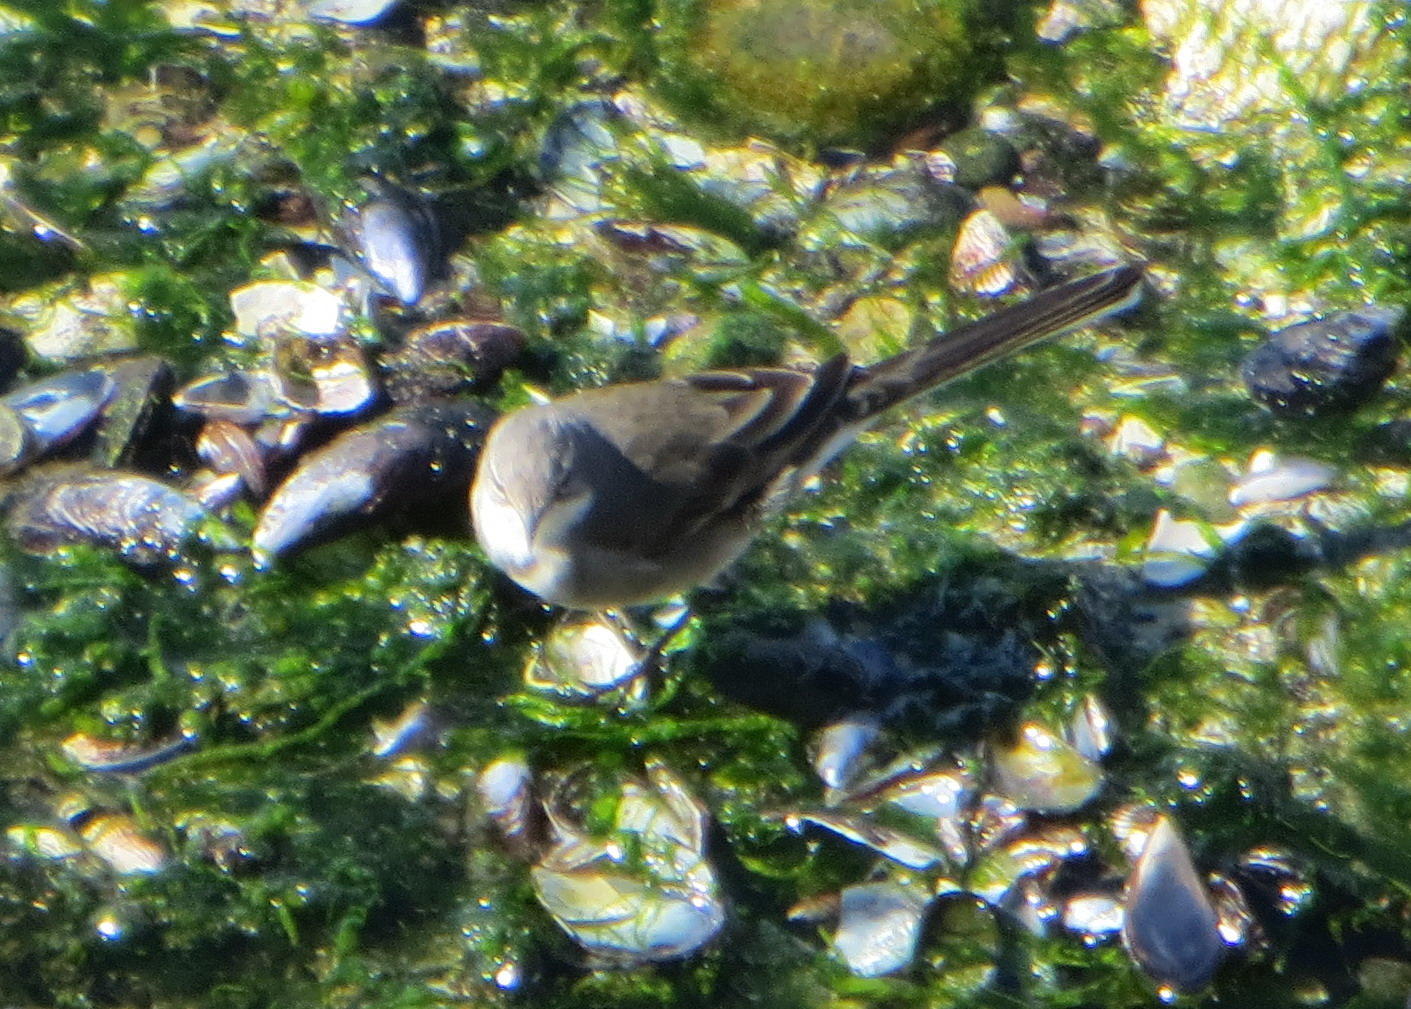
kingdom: Animalia
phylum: Chordata
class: Aves
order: Passeriformes
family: Motacillidae
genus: Motacilla
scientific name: Motacilla capensis
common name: Cape wagtail
